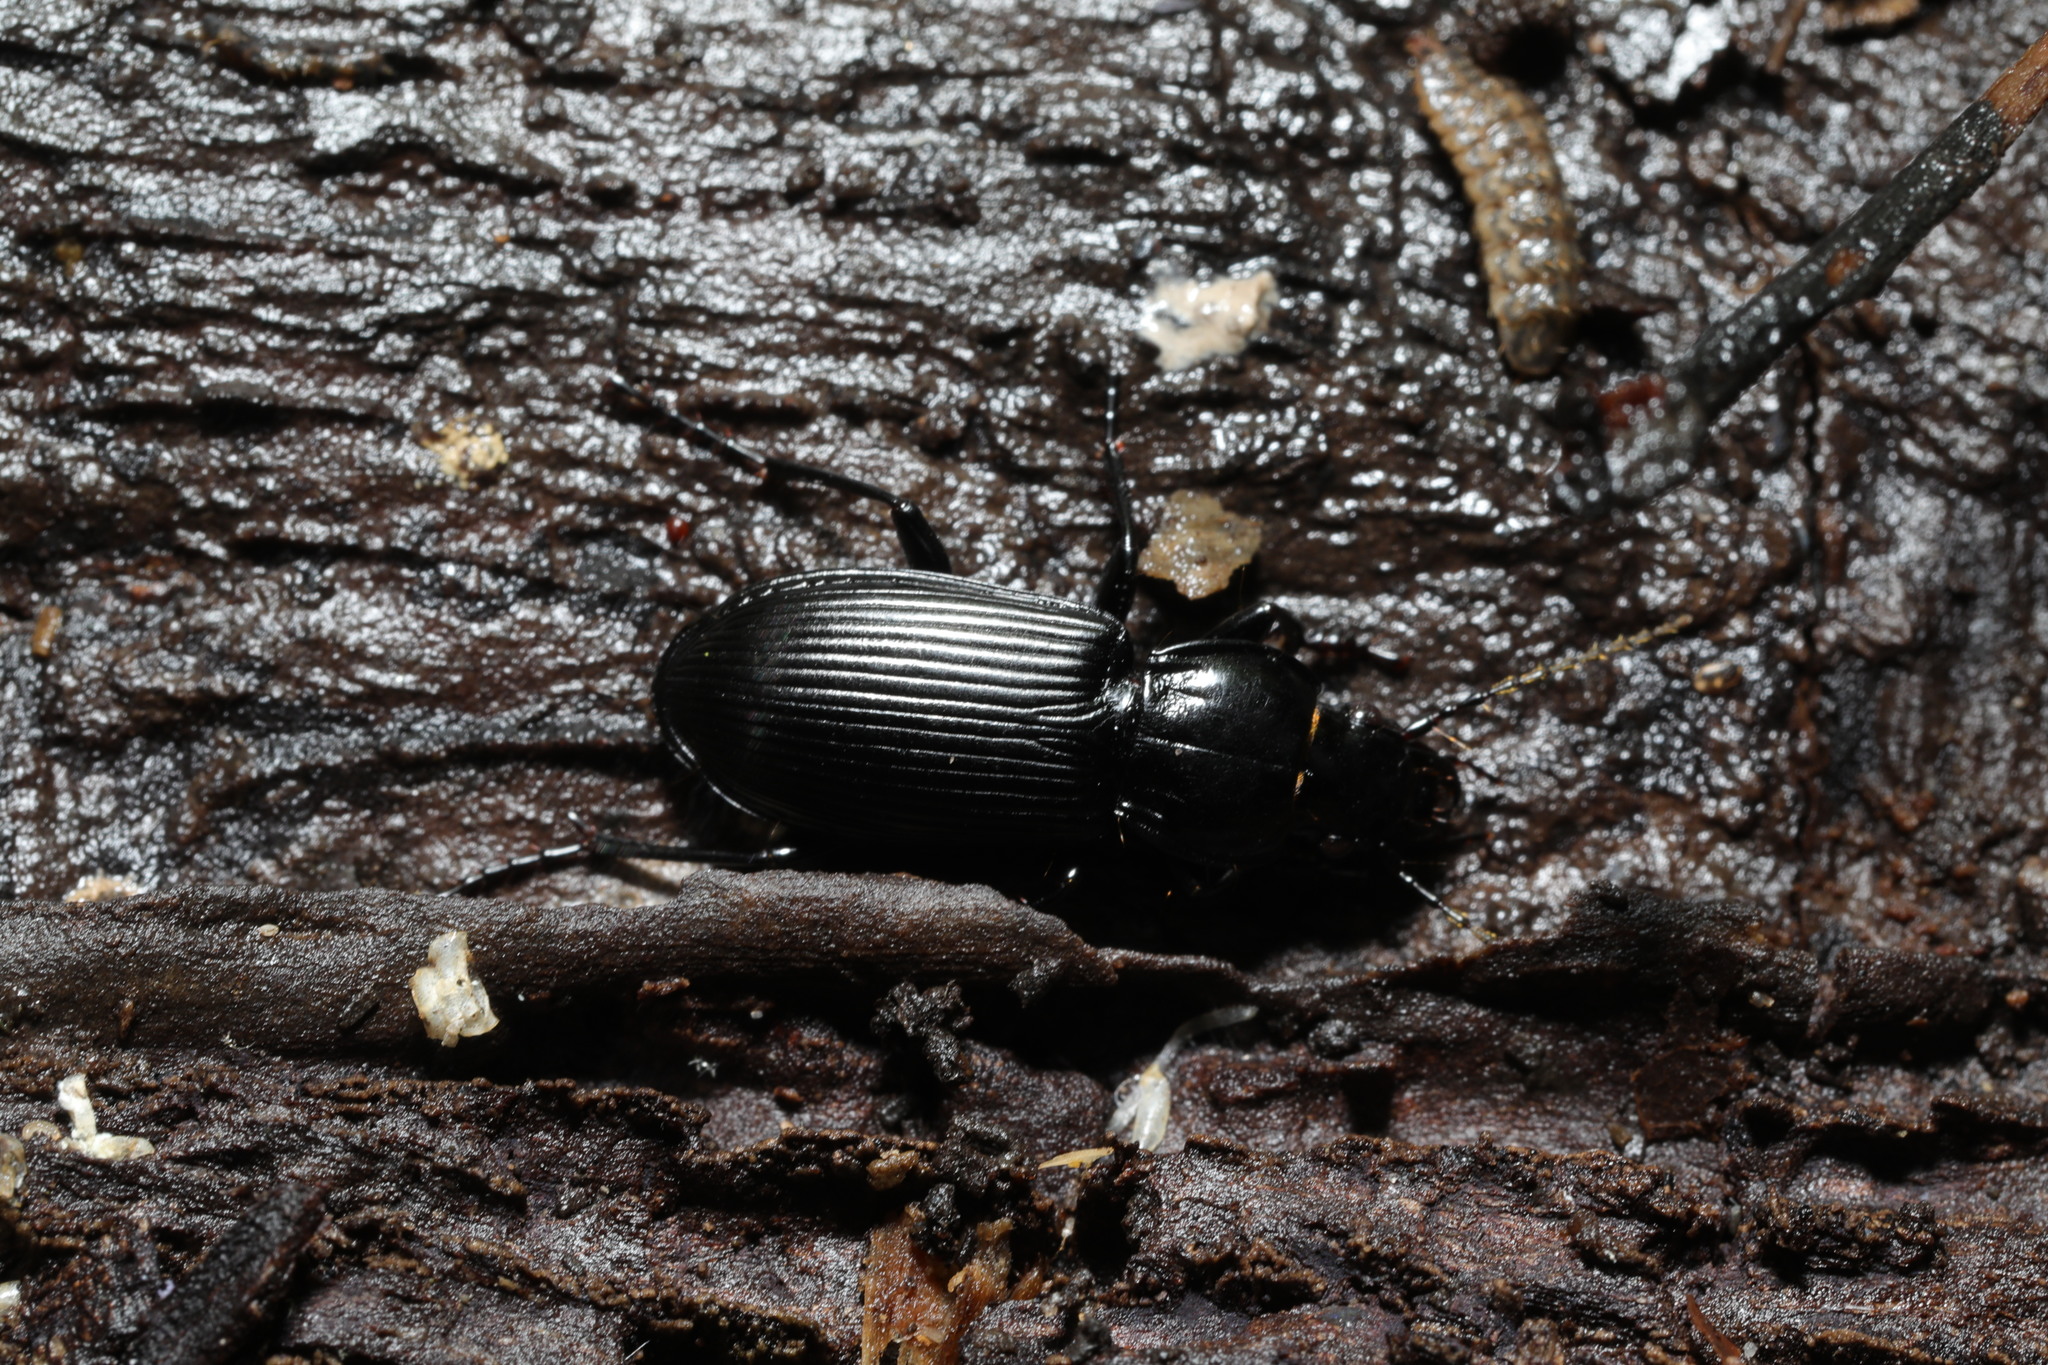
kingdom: Animalia
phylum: Arthropoda
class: Insecta
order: Coleoptera
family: Carabidae
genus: Pterostichus
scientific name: Pterostichus melanarius
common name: European dark harp ground beetle
